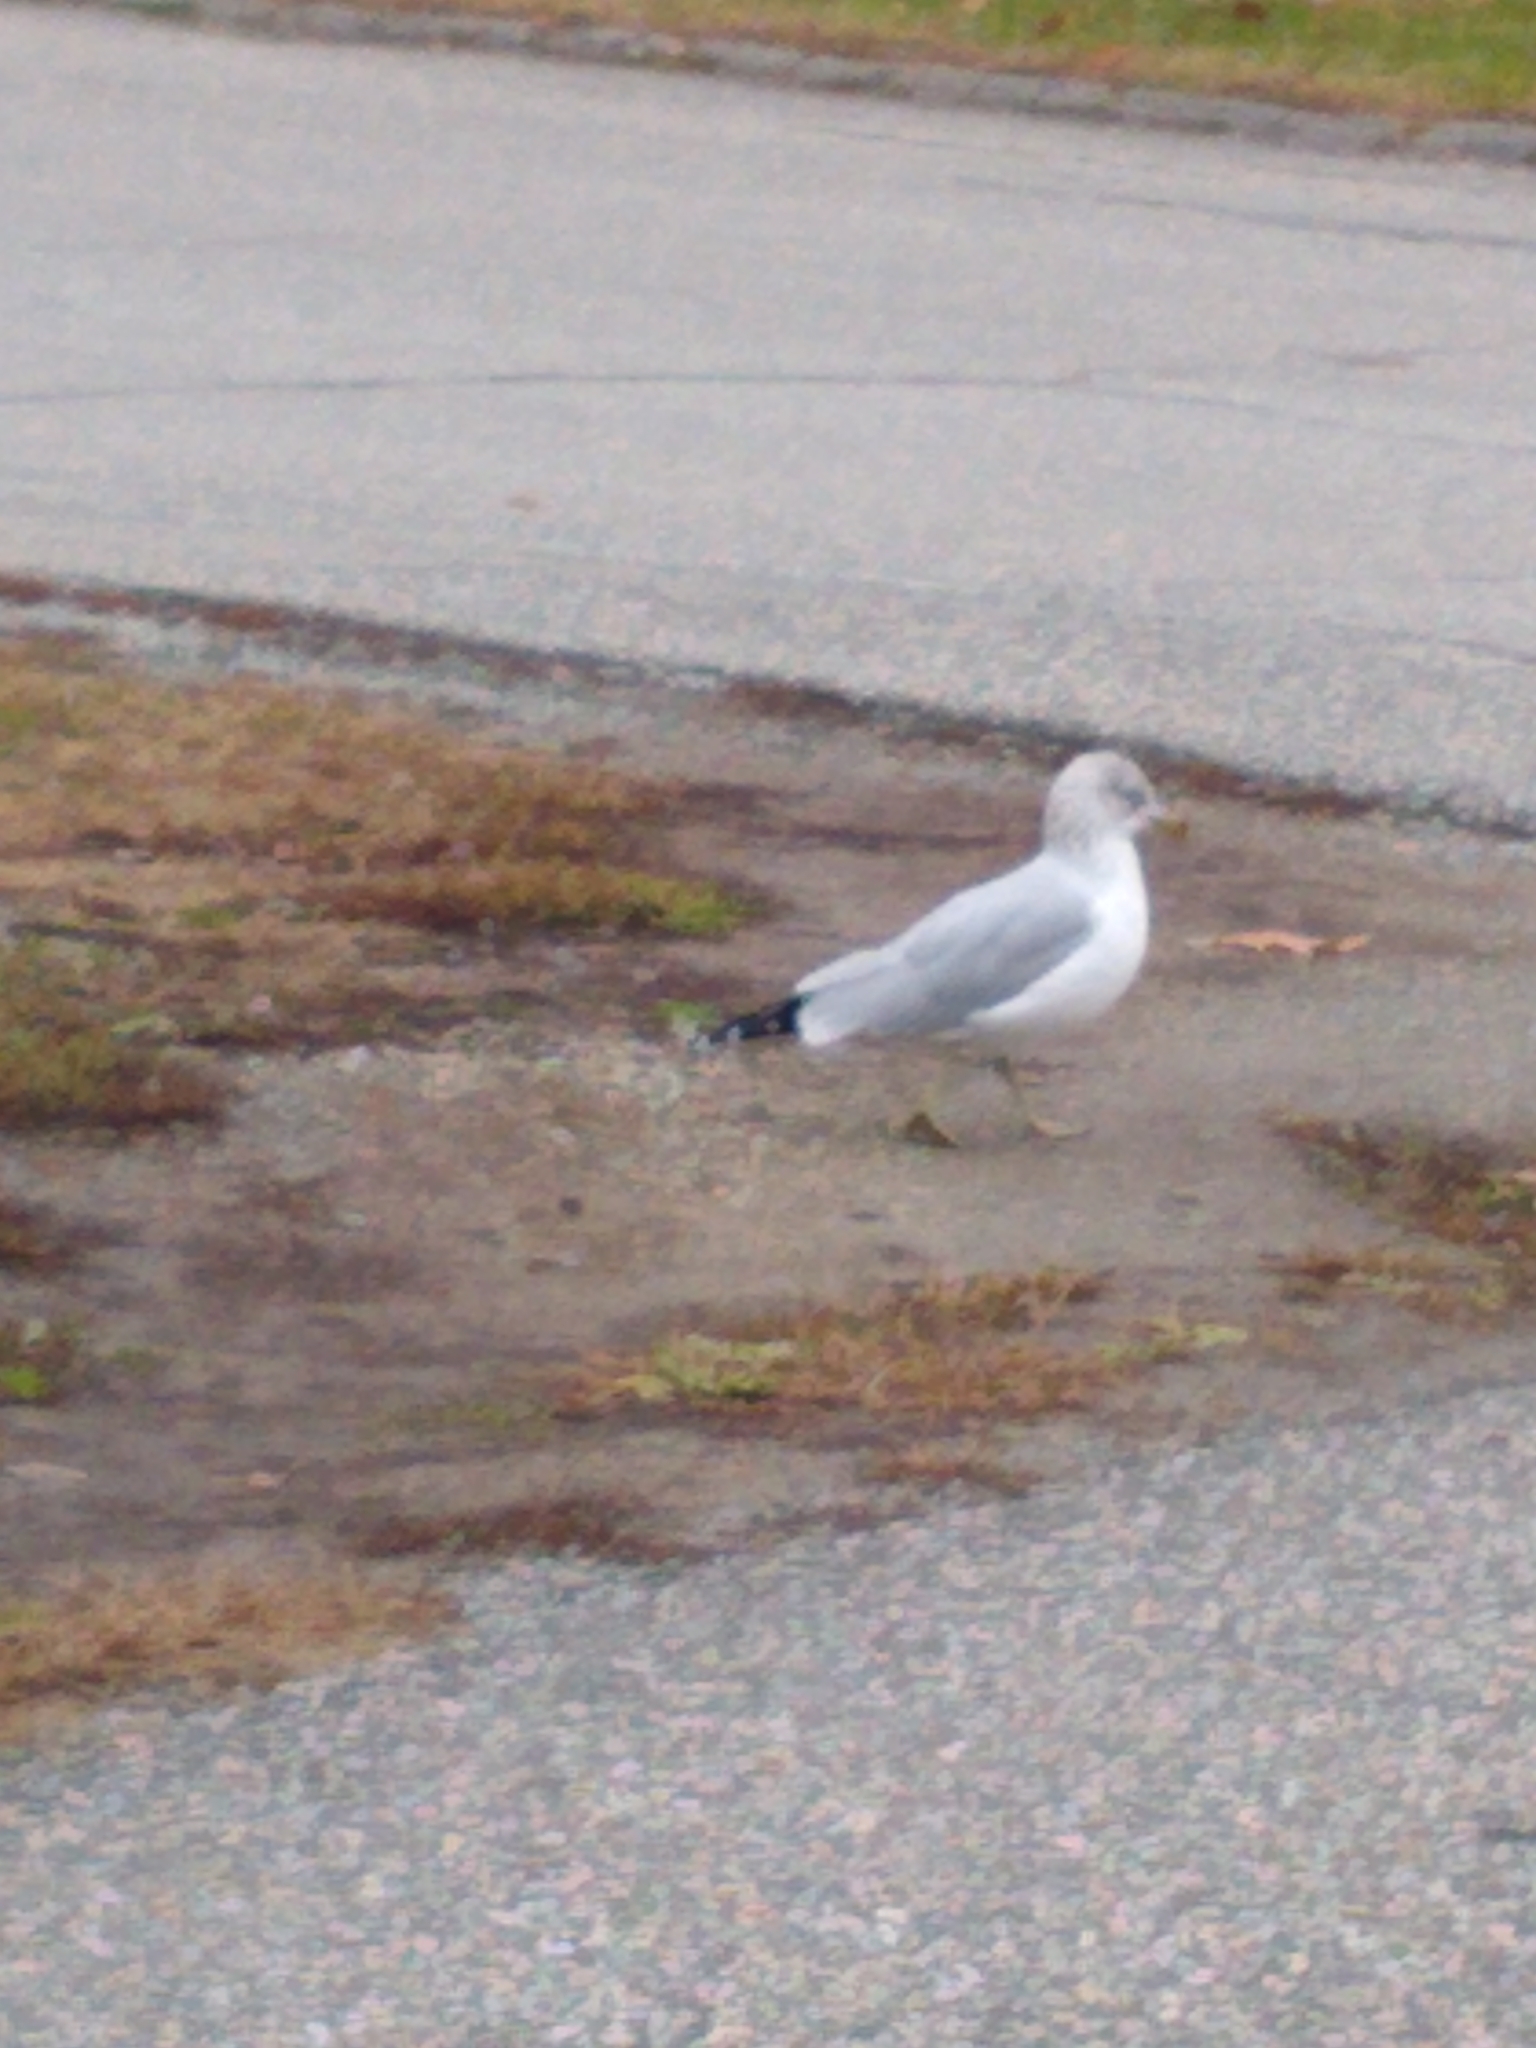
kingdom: Animalia
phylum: Chordata
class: Aves
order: Charadriiformes
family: Laridae
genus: Larus
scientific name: Larus delawarensis
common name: Ring-billed gull
